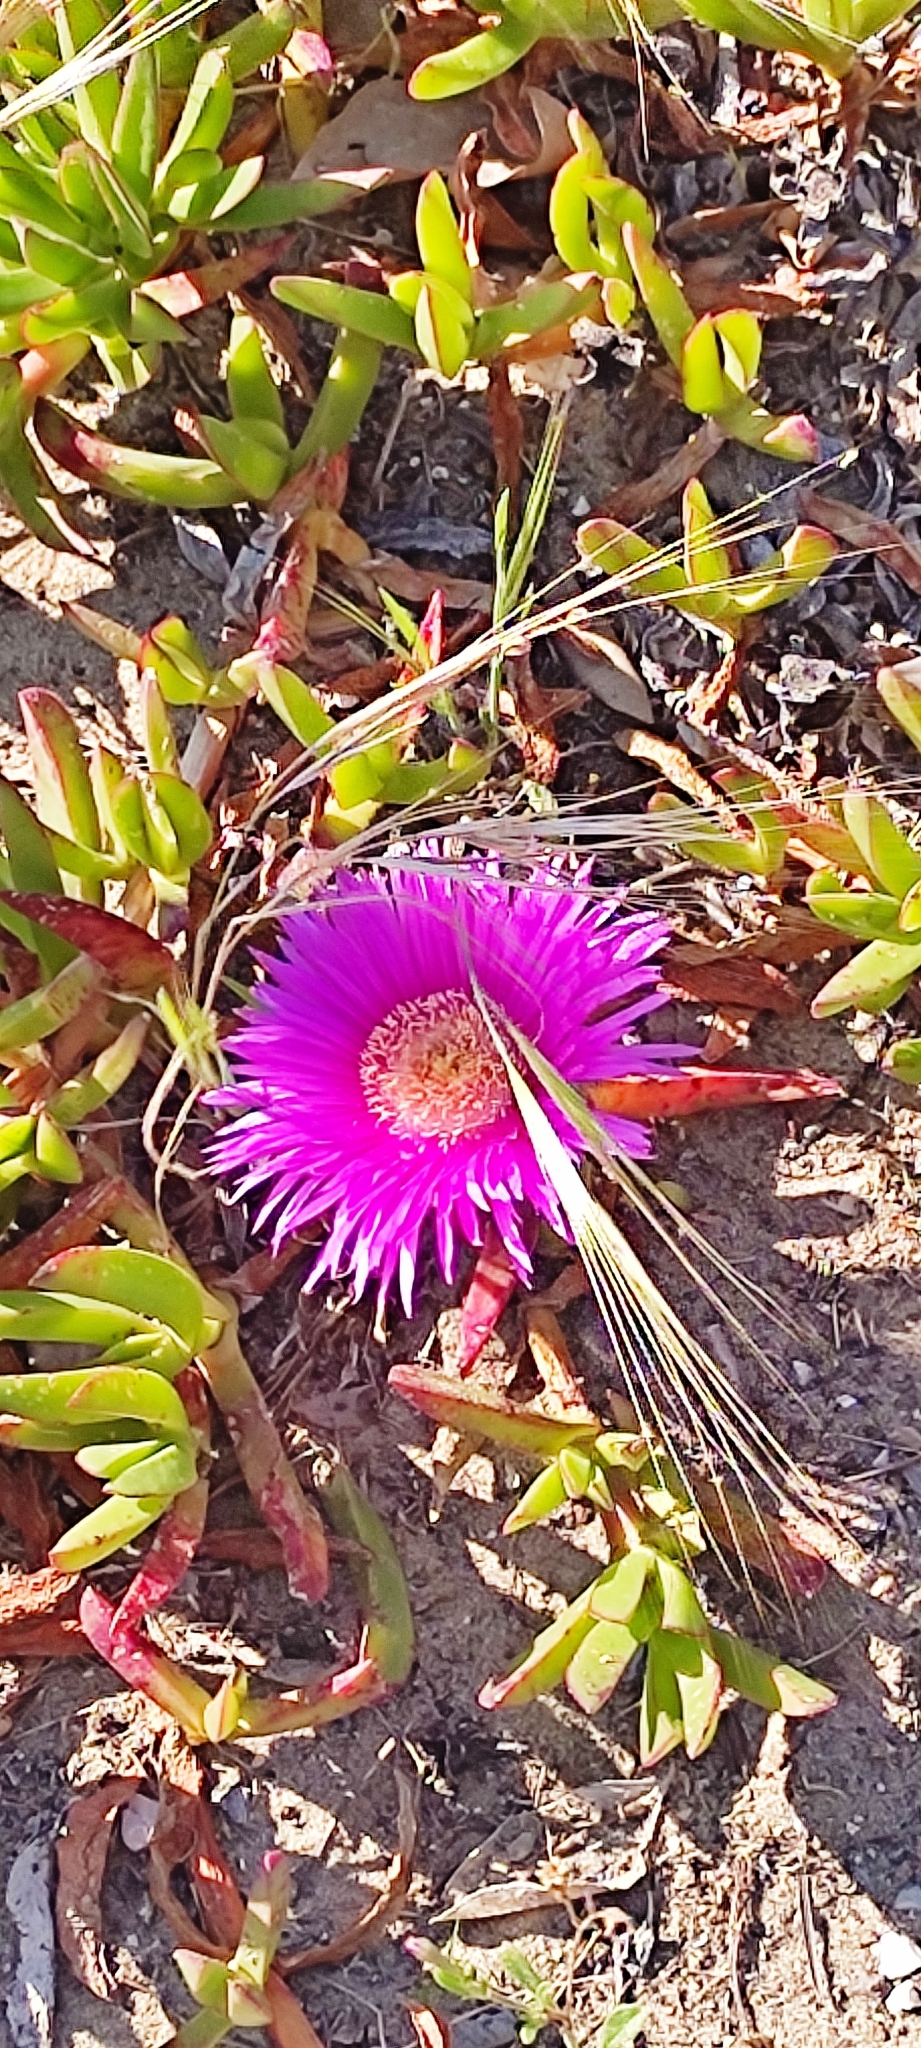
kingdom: Plantae
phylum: Tracheophyta
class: Magnoliopsida
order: Caryophyllales
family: Aizoaceae
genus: Carpobrotus
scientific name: Carpobrotus acinaciformis
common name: Sally-my-handsome
